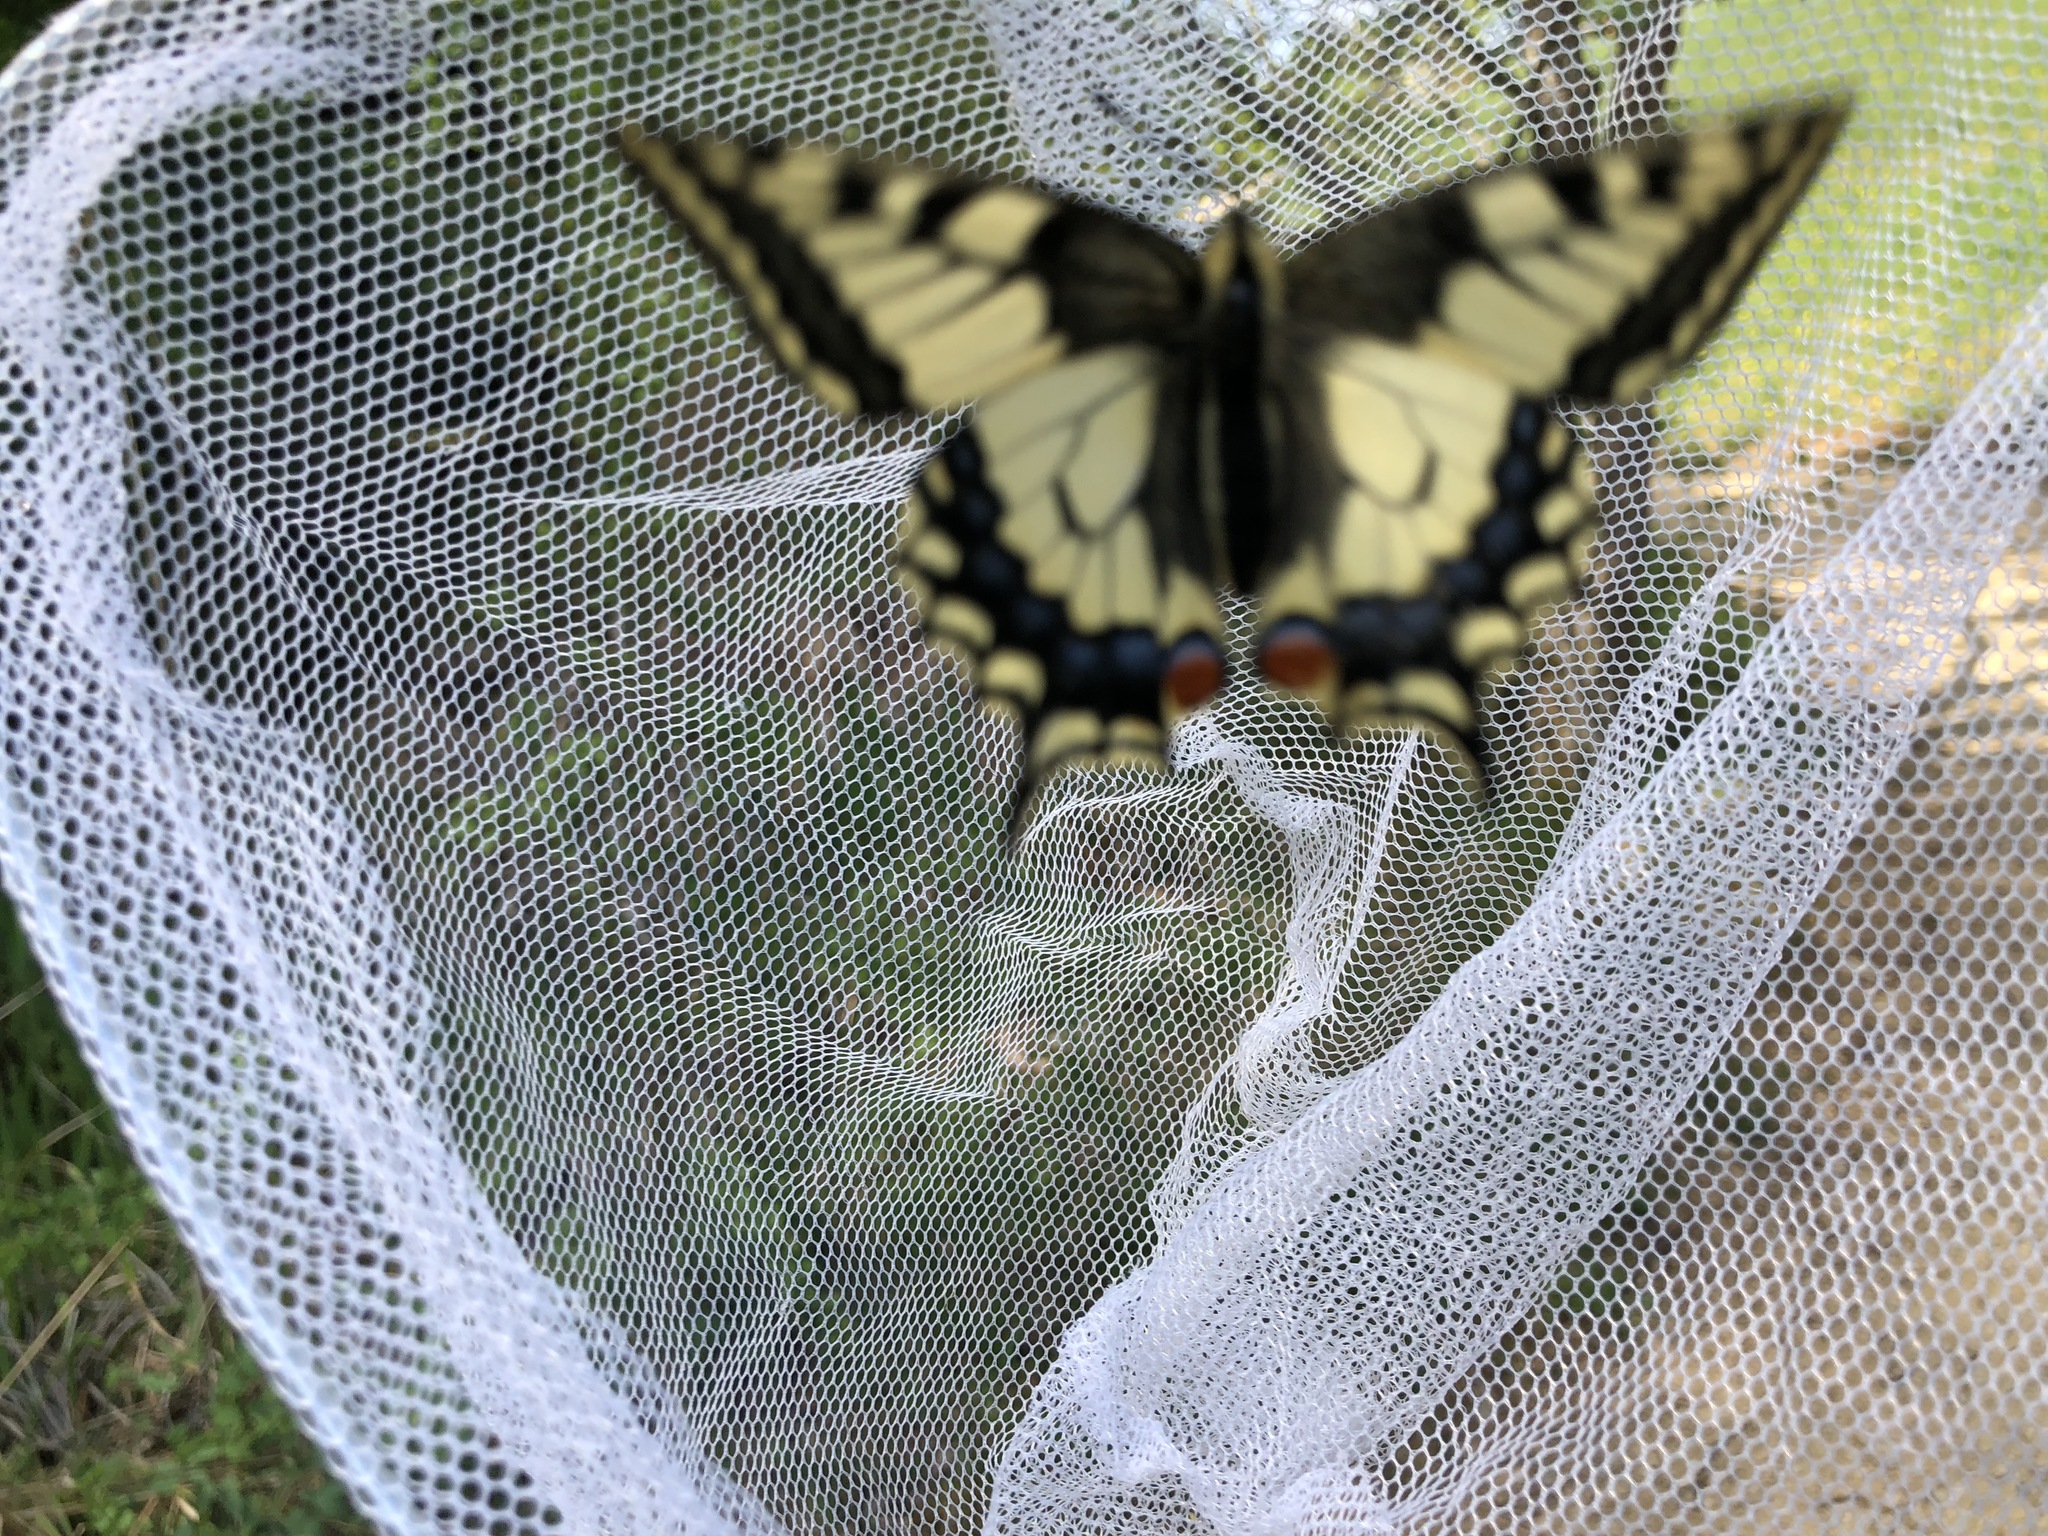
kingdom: Animalia
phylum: Arthropoda
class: Insecta
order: Lepidoptera
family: Papilionidae
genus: Papilio
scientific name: Papilio machaon
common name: Swallowtail
